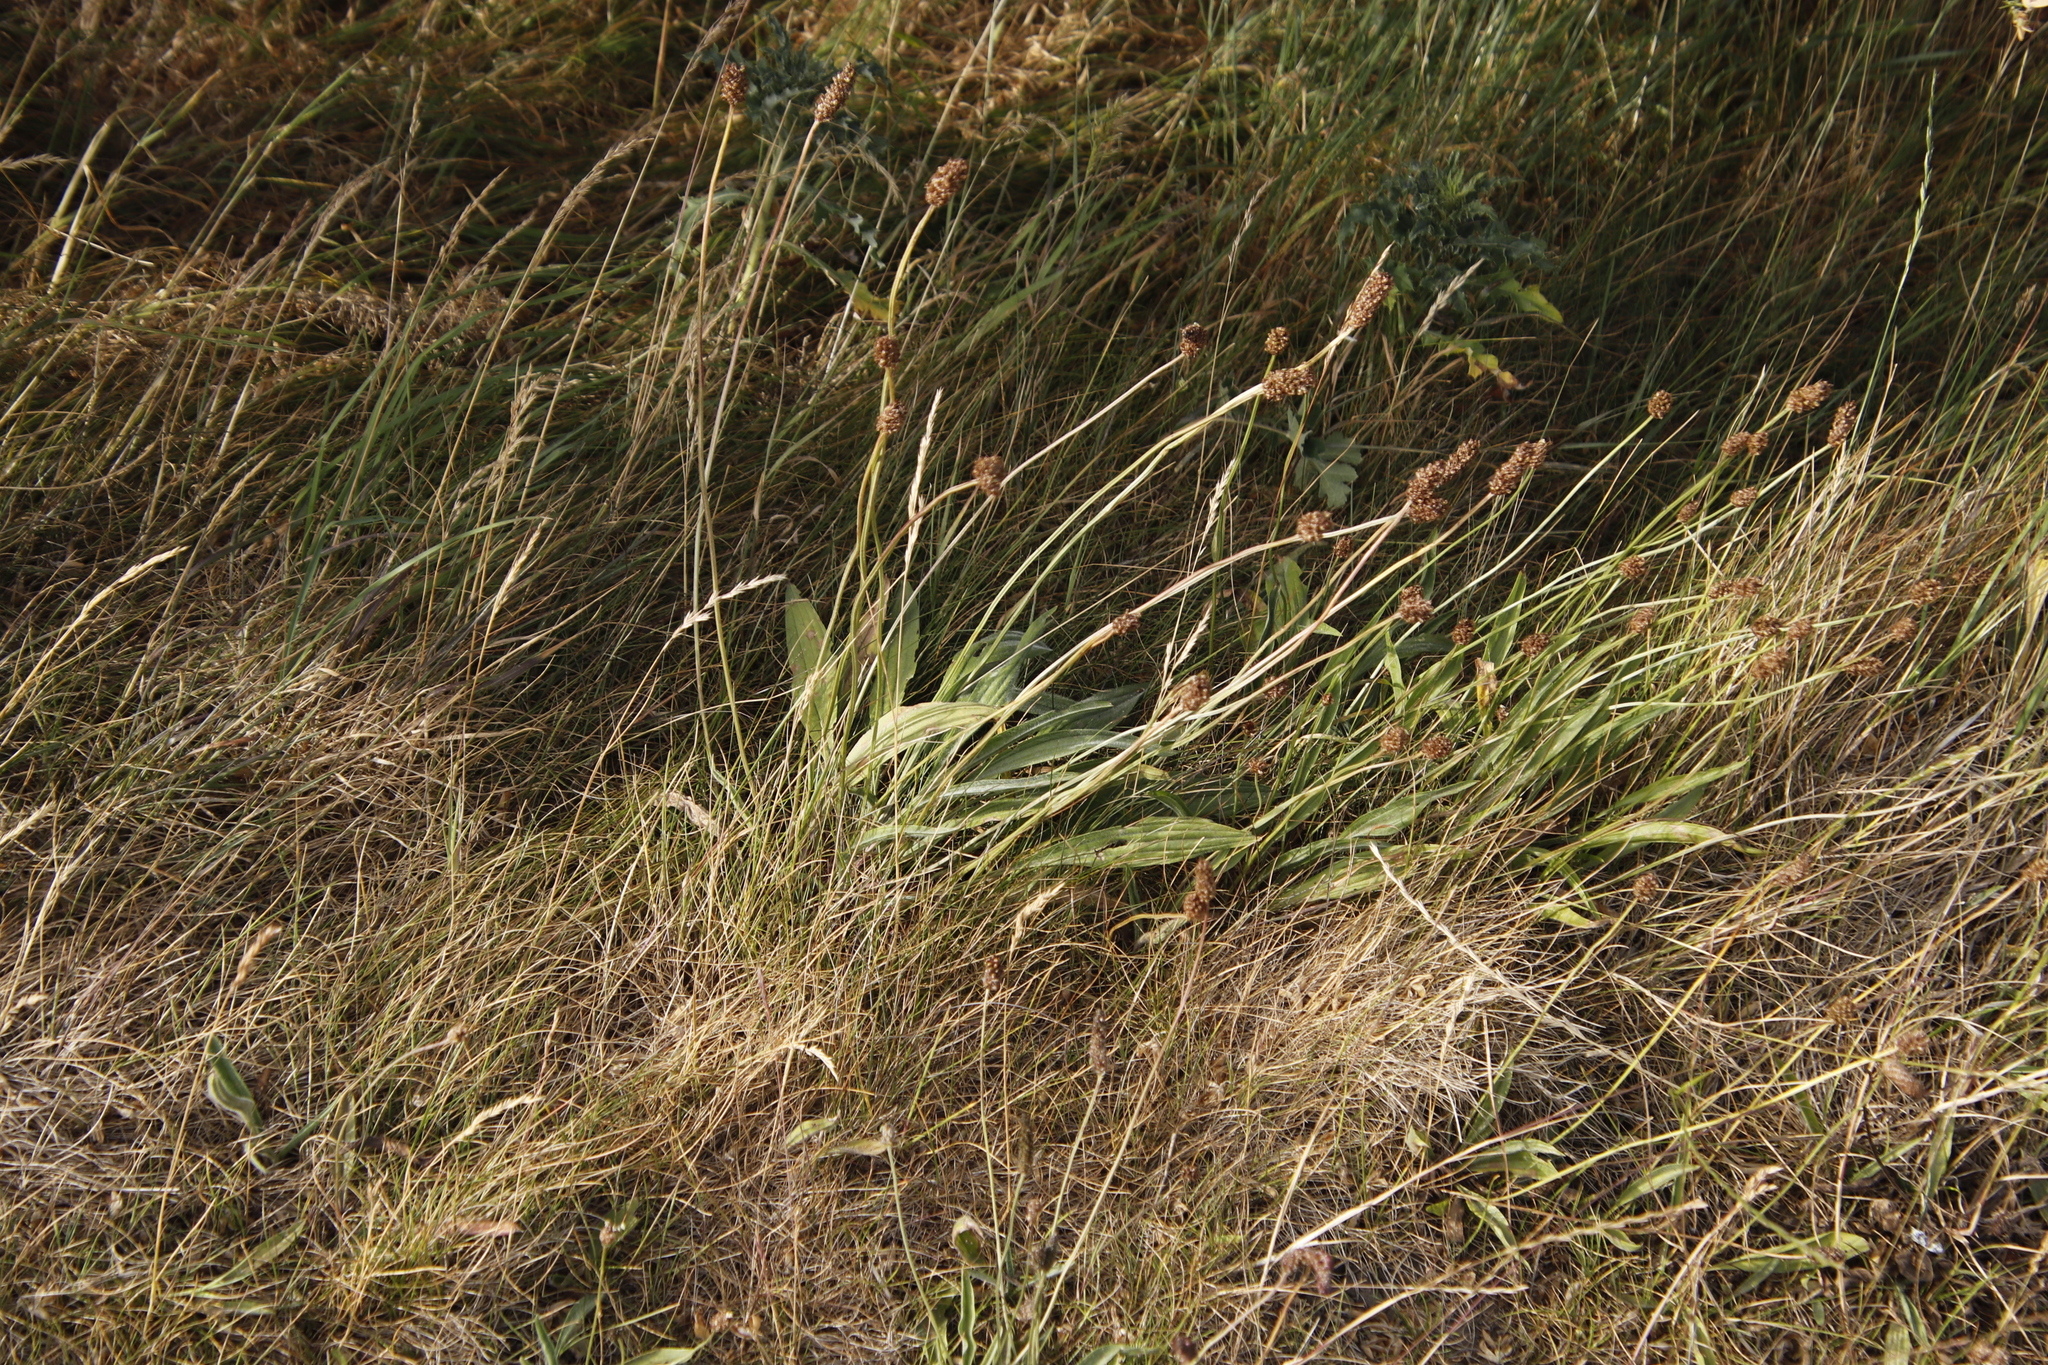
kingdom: Plantae
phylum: Tracheophyta
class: Magnoliopsida
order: Lamiales
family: Plantaginaceae
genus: Plantago
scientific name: Plantago lanceolata
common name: Ribwort plantain
